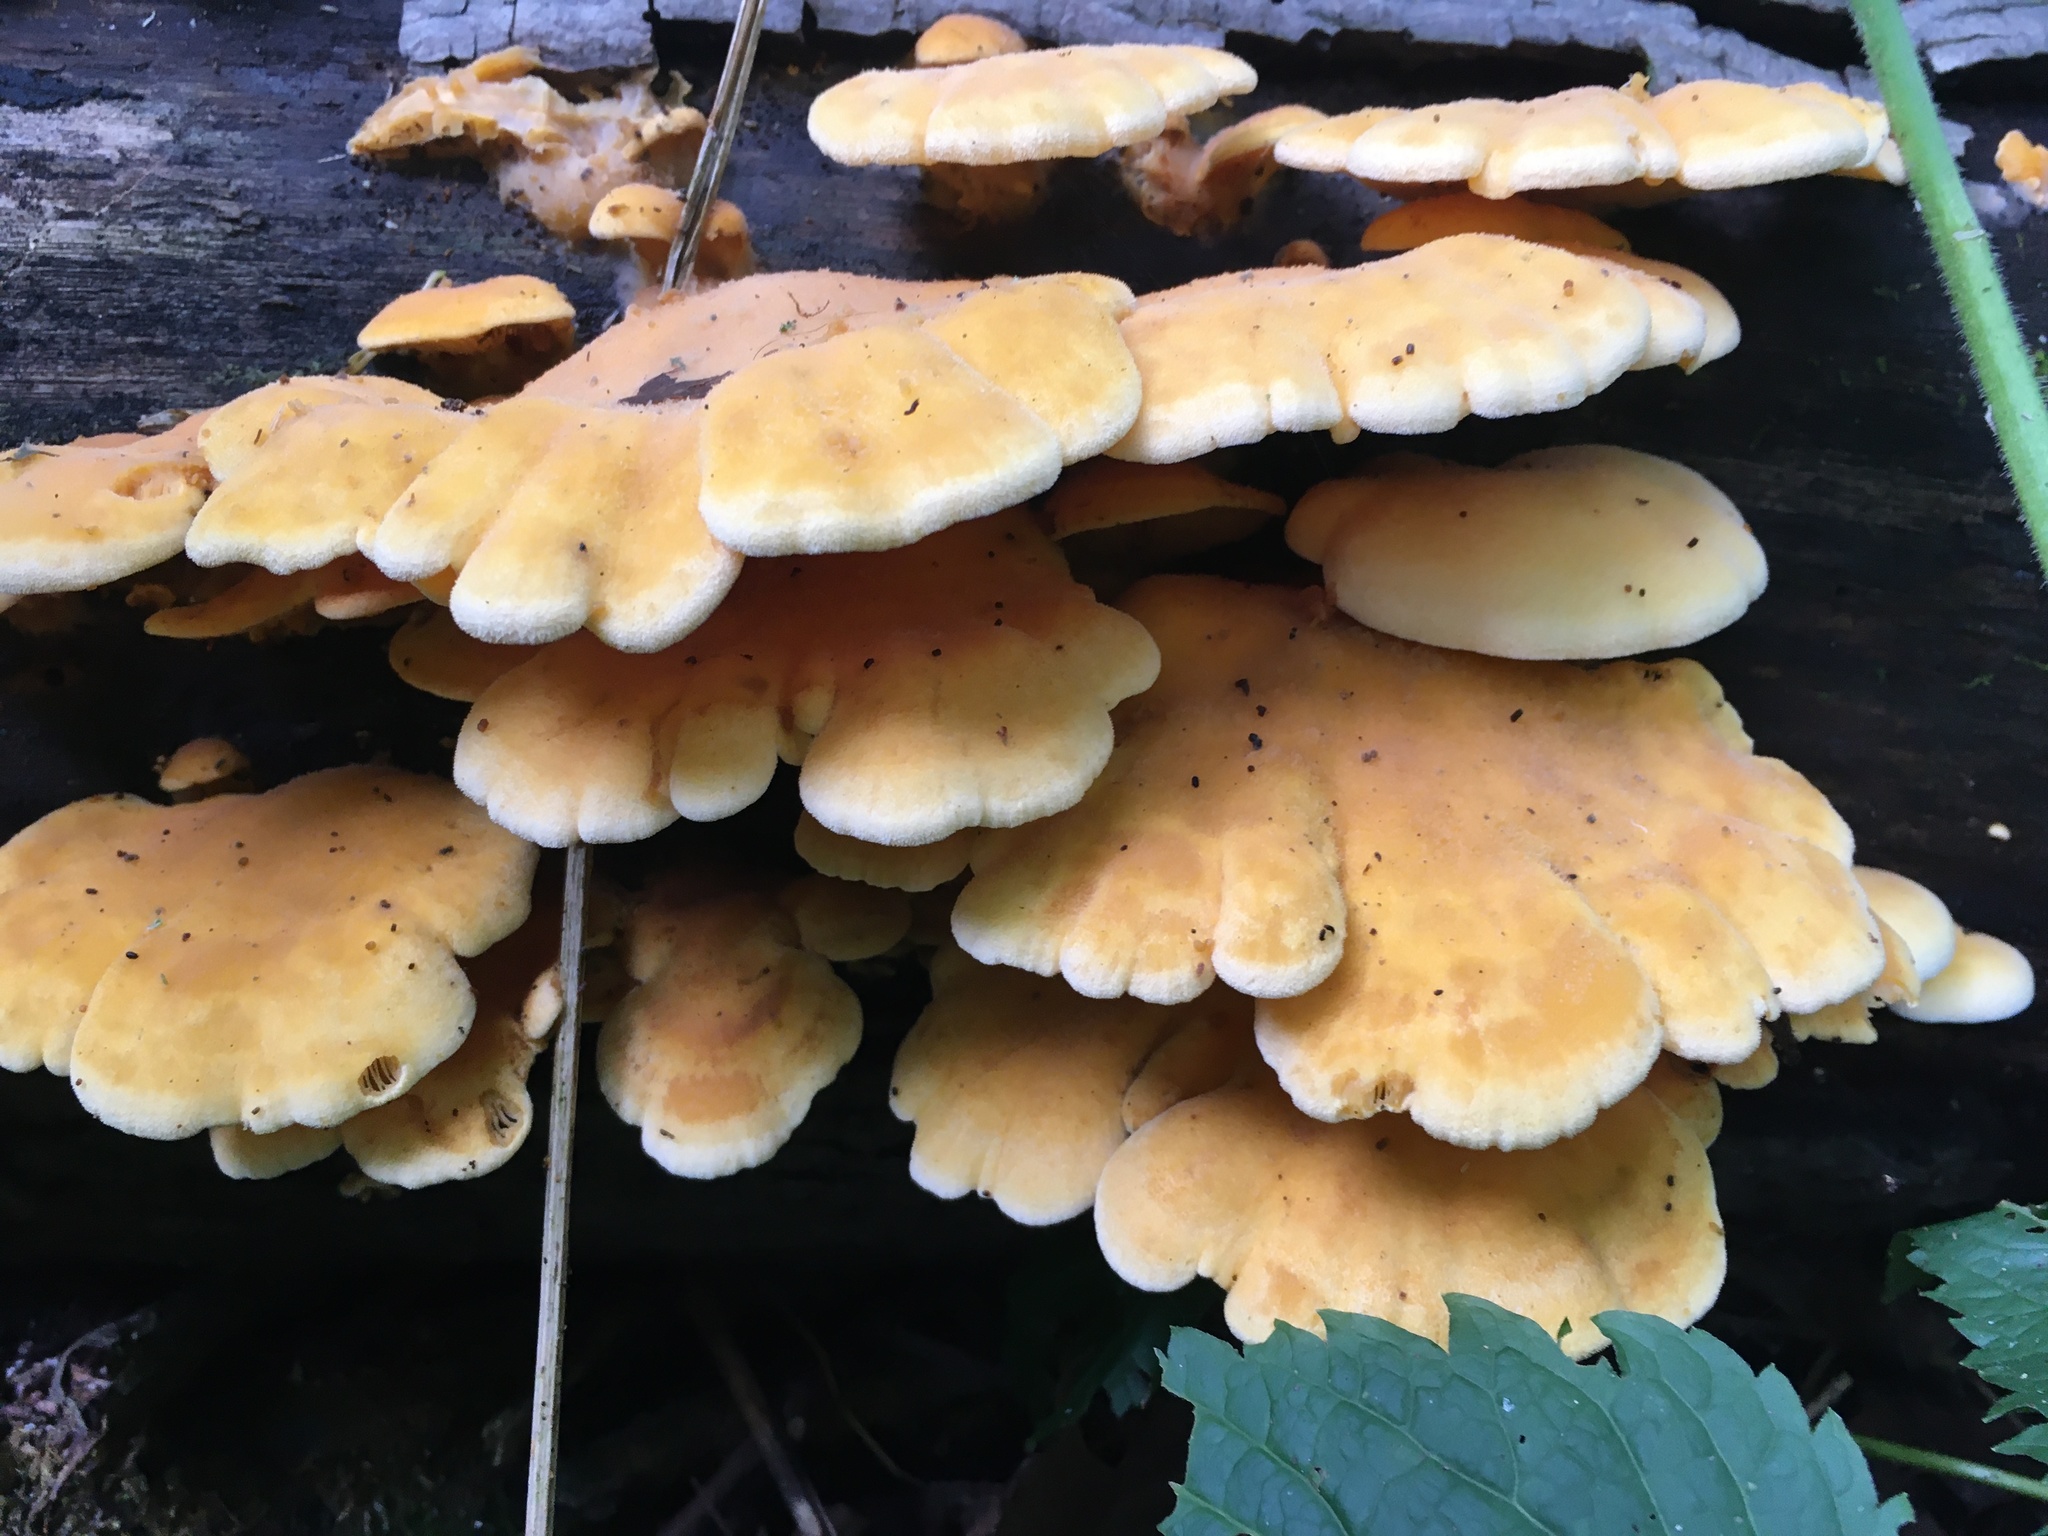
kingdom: Fungi
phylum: Basidiomycota
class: Agaricomycetes
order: Agaricales
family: Phyllotopsidaceae
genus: Phyllotopsis
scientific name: Phyllotopsis nidulans
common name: Orange mock oyster
